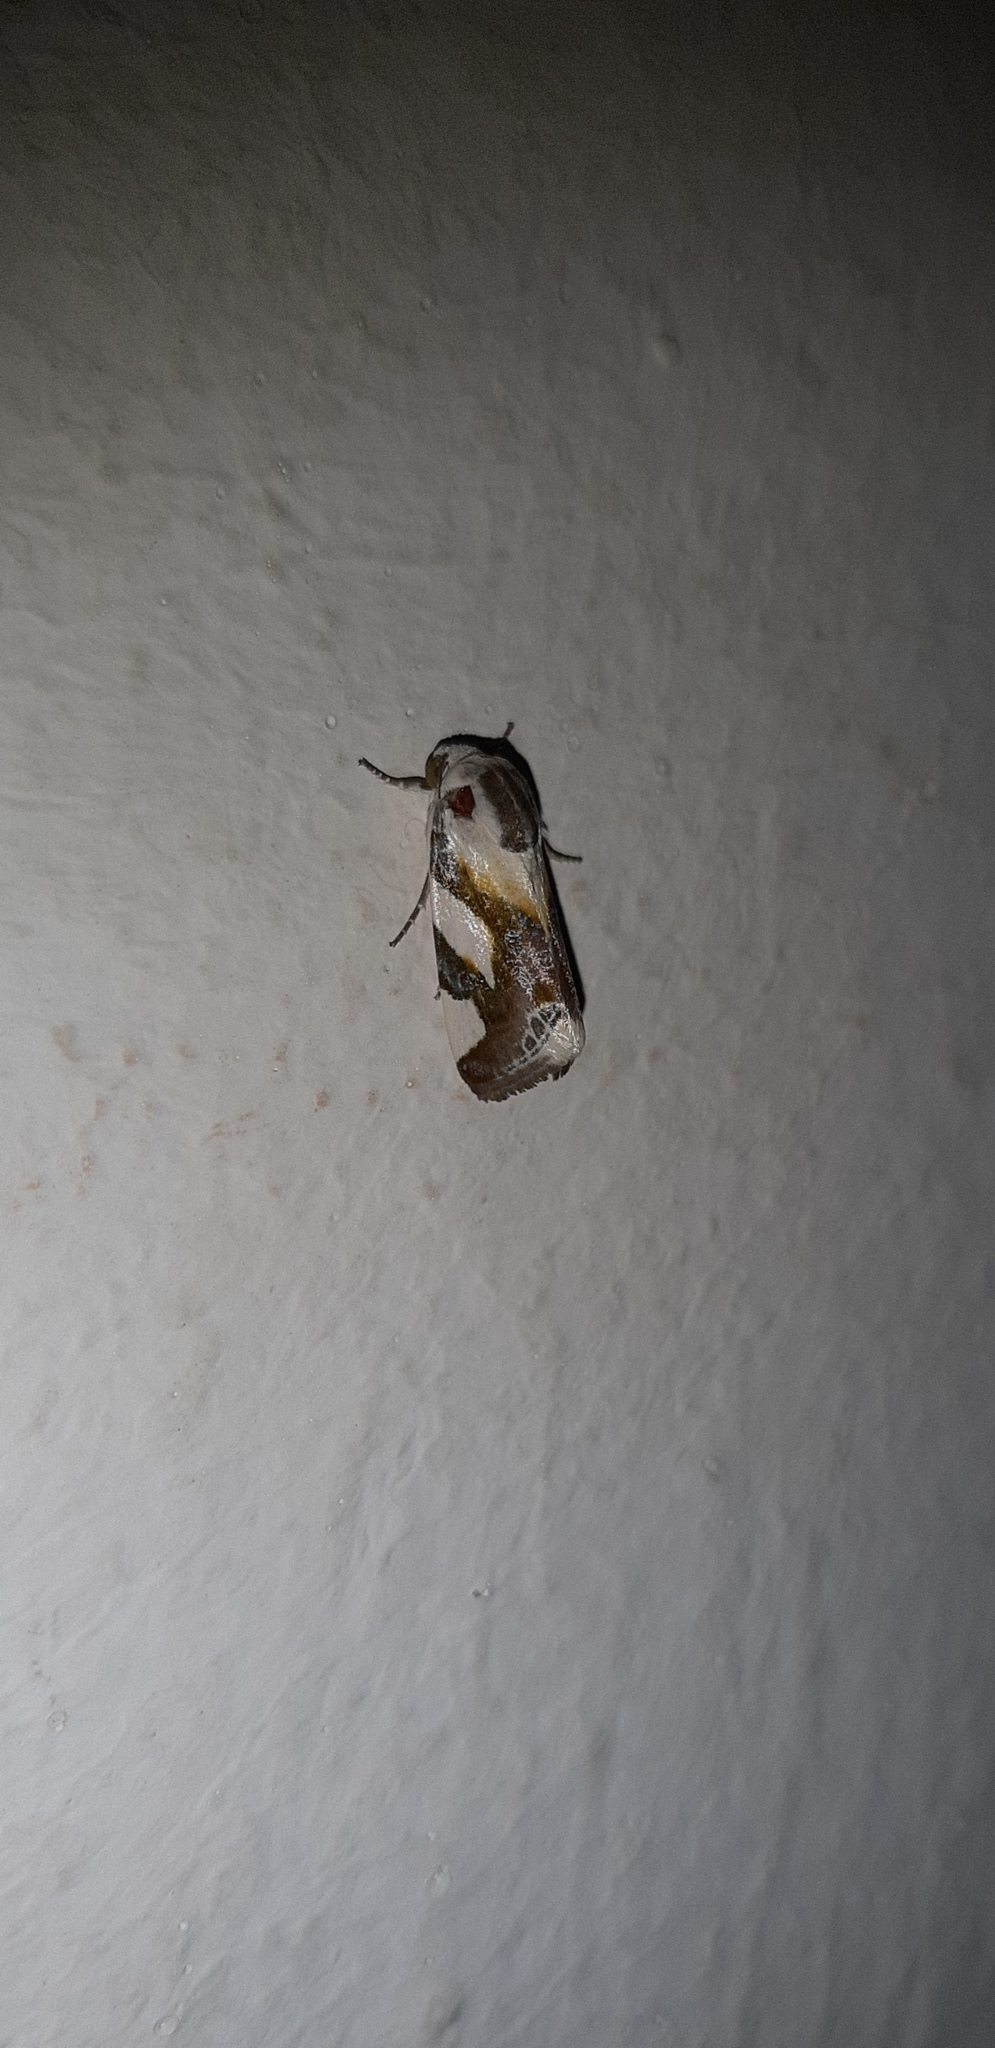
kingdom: Animalia
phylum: Arthropoda
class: Insecta
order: Lepidoptera
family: Noctuidae
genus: Acontia
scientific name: Acontia umbrigera
